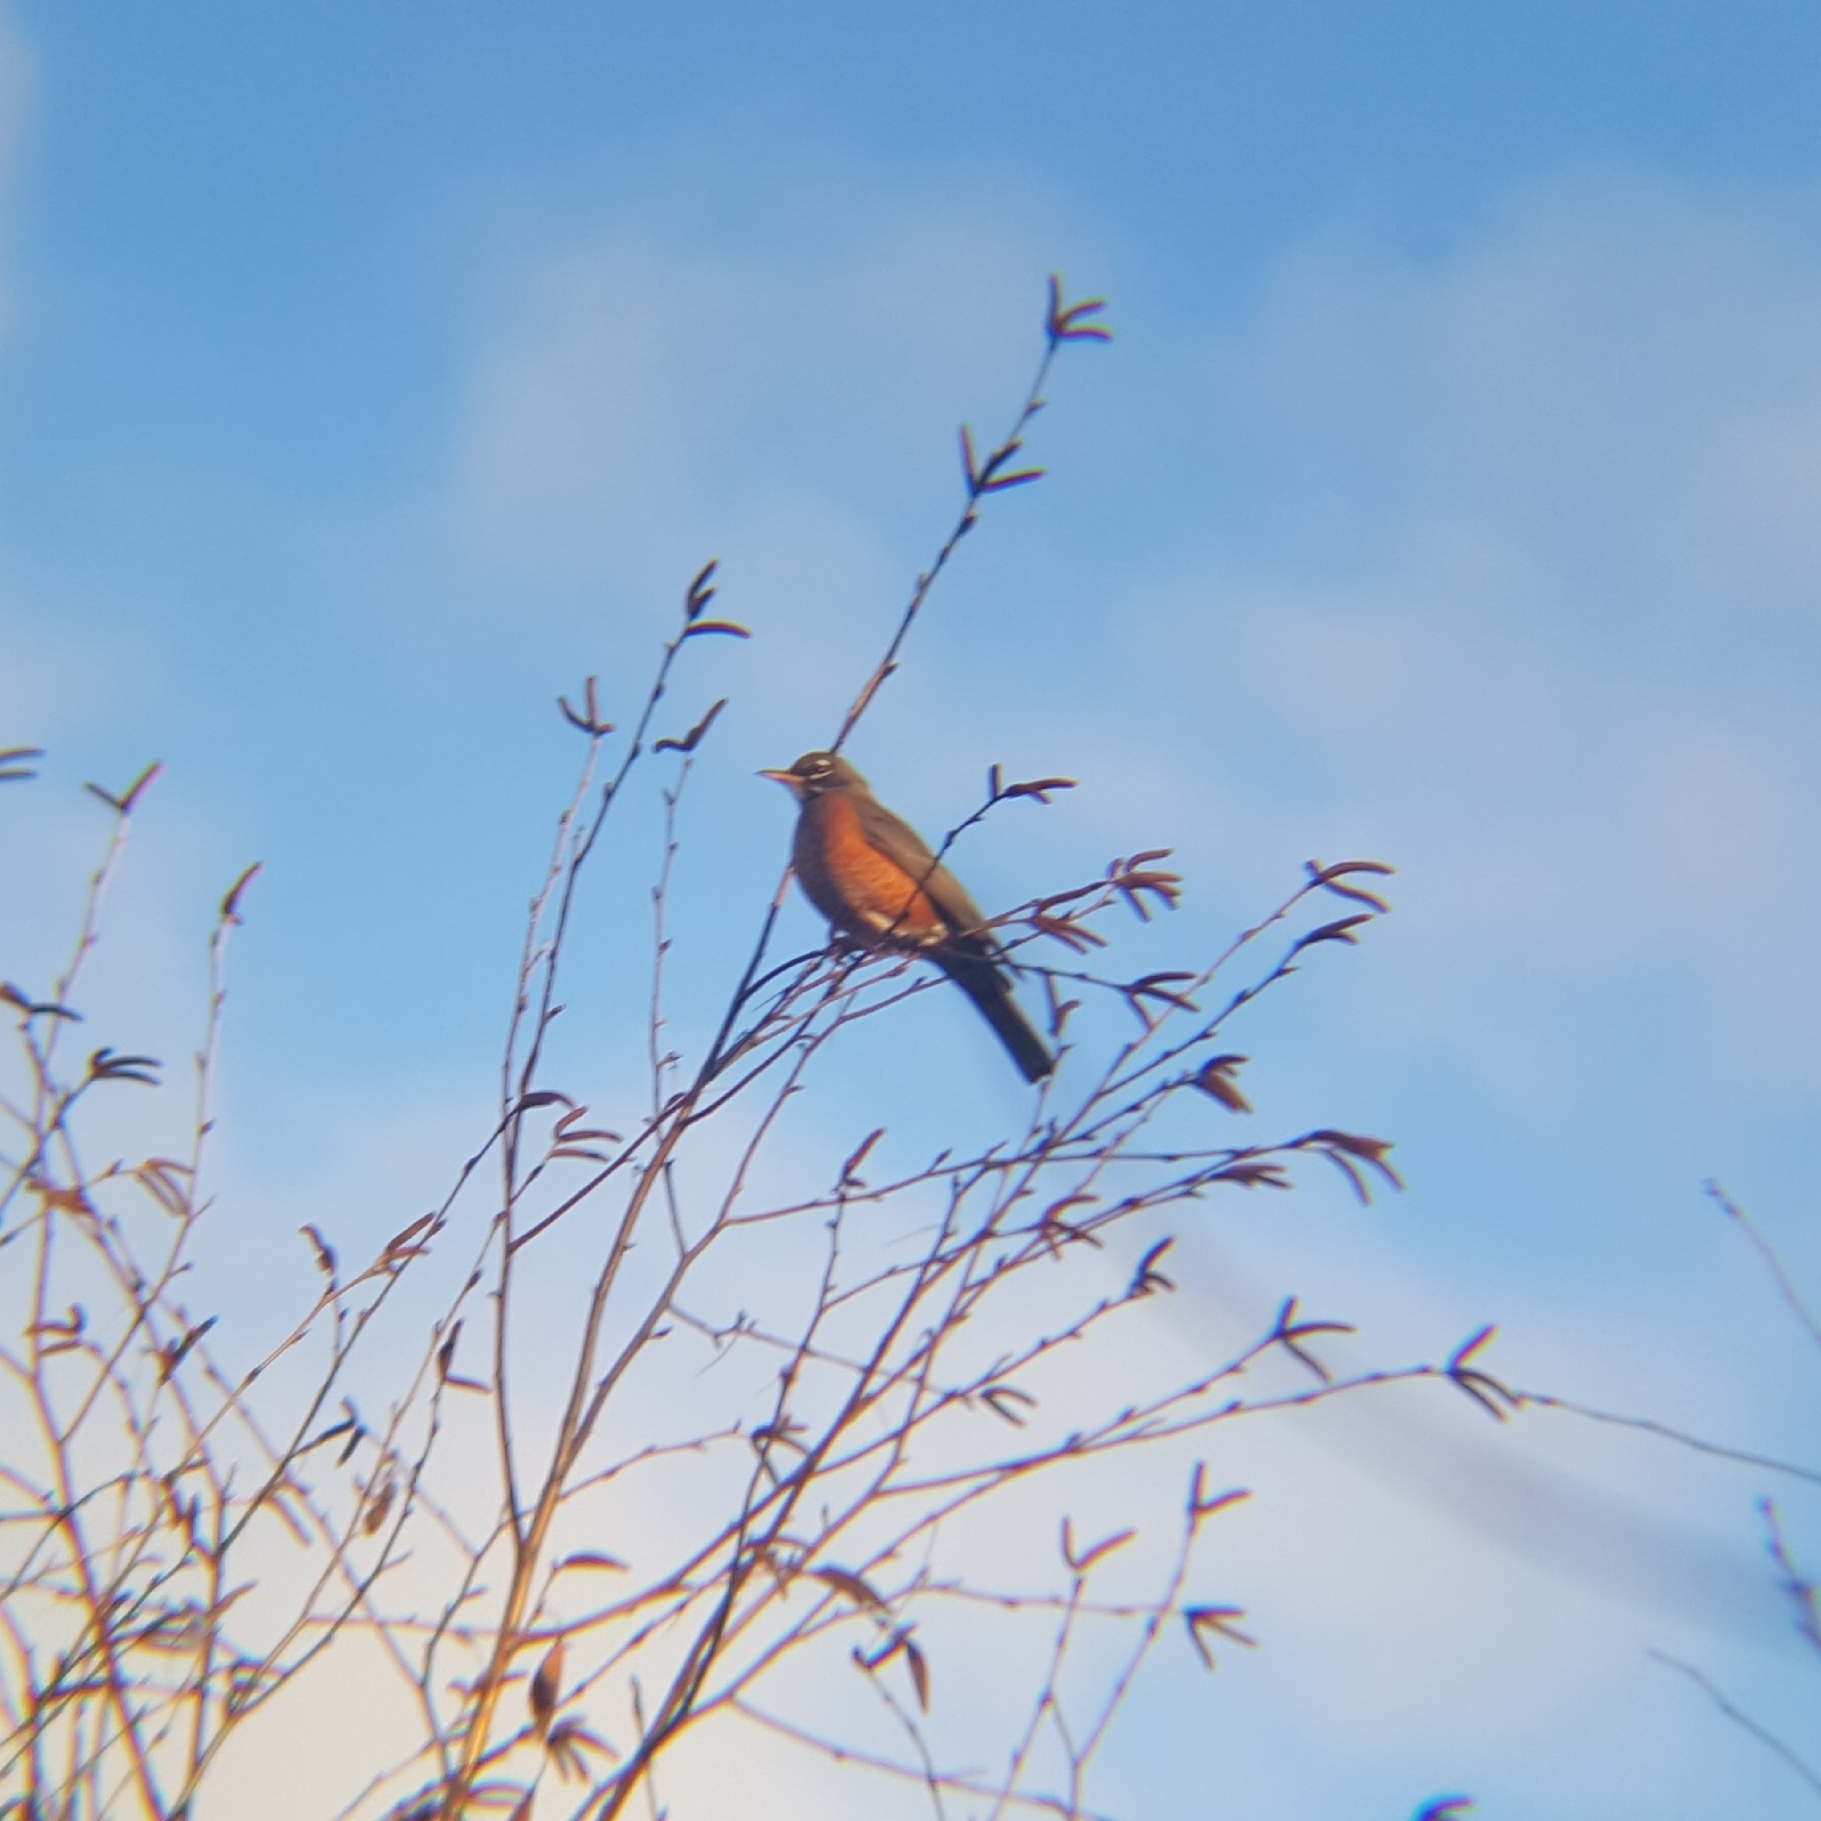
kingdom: Animalia
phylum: Chordata
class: Aves
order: Passeriformes
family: Turdidae
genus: Turdus
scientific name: Turdus migratorius
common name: American robin
